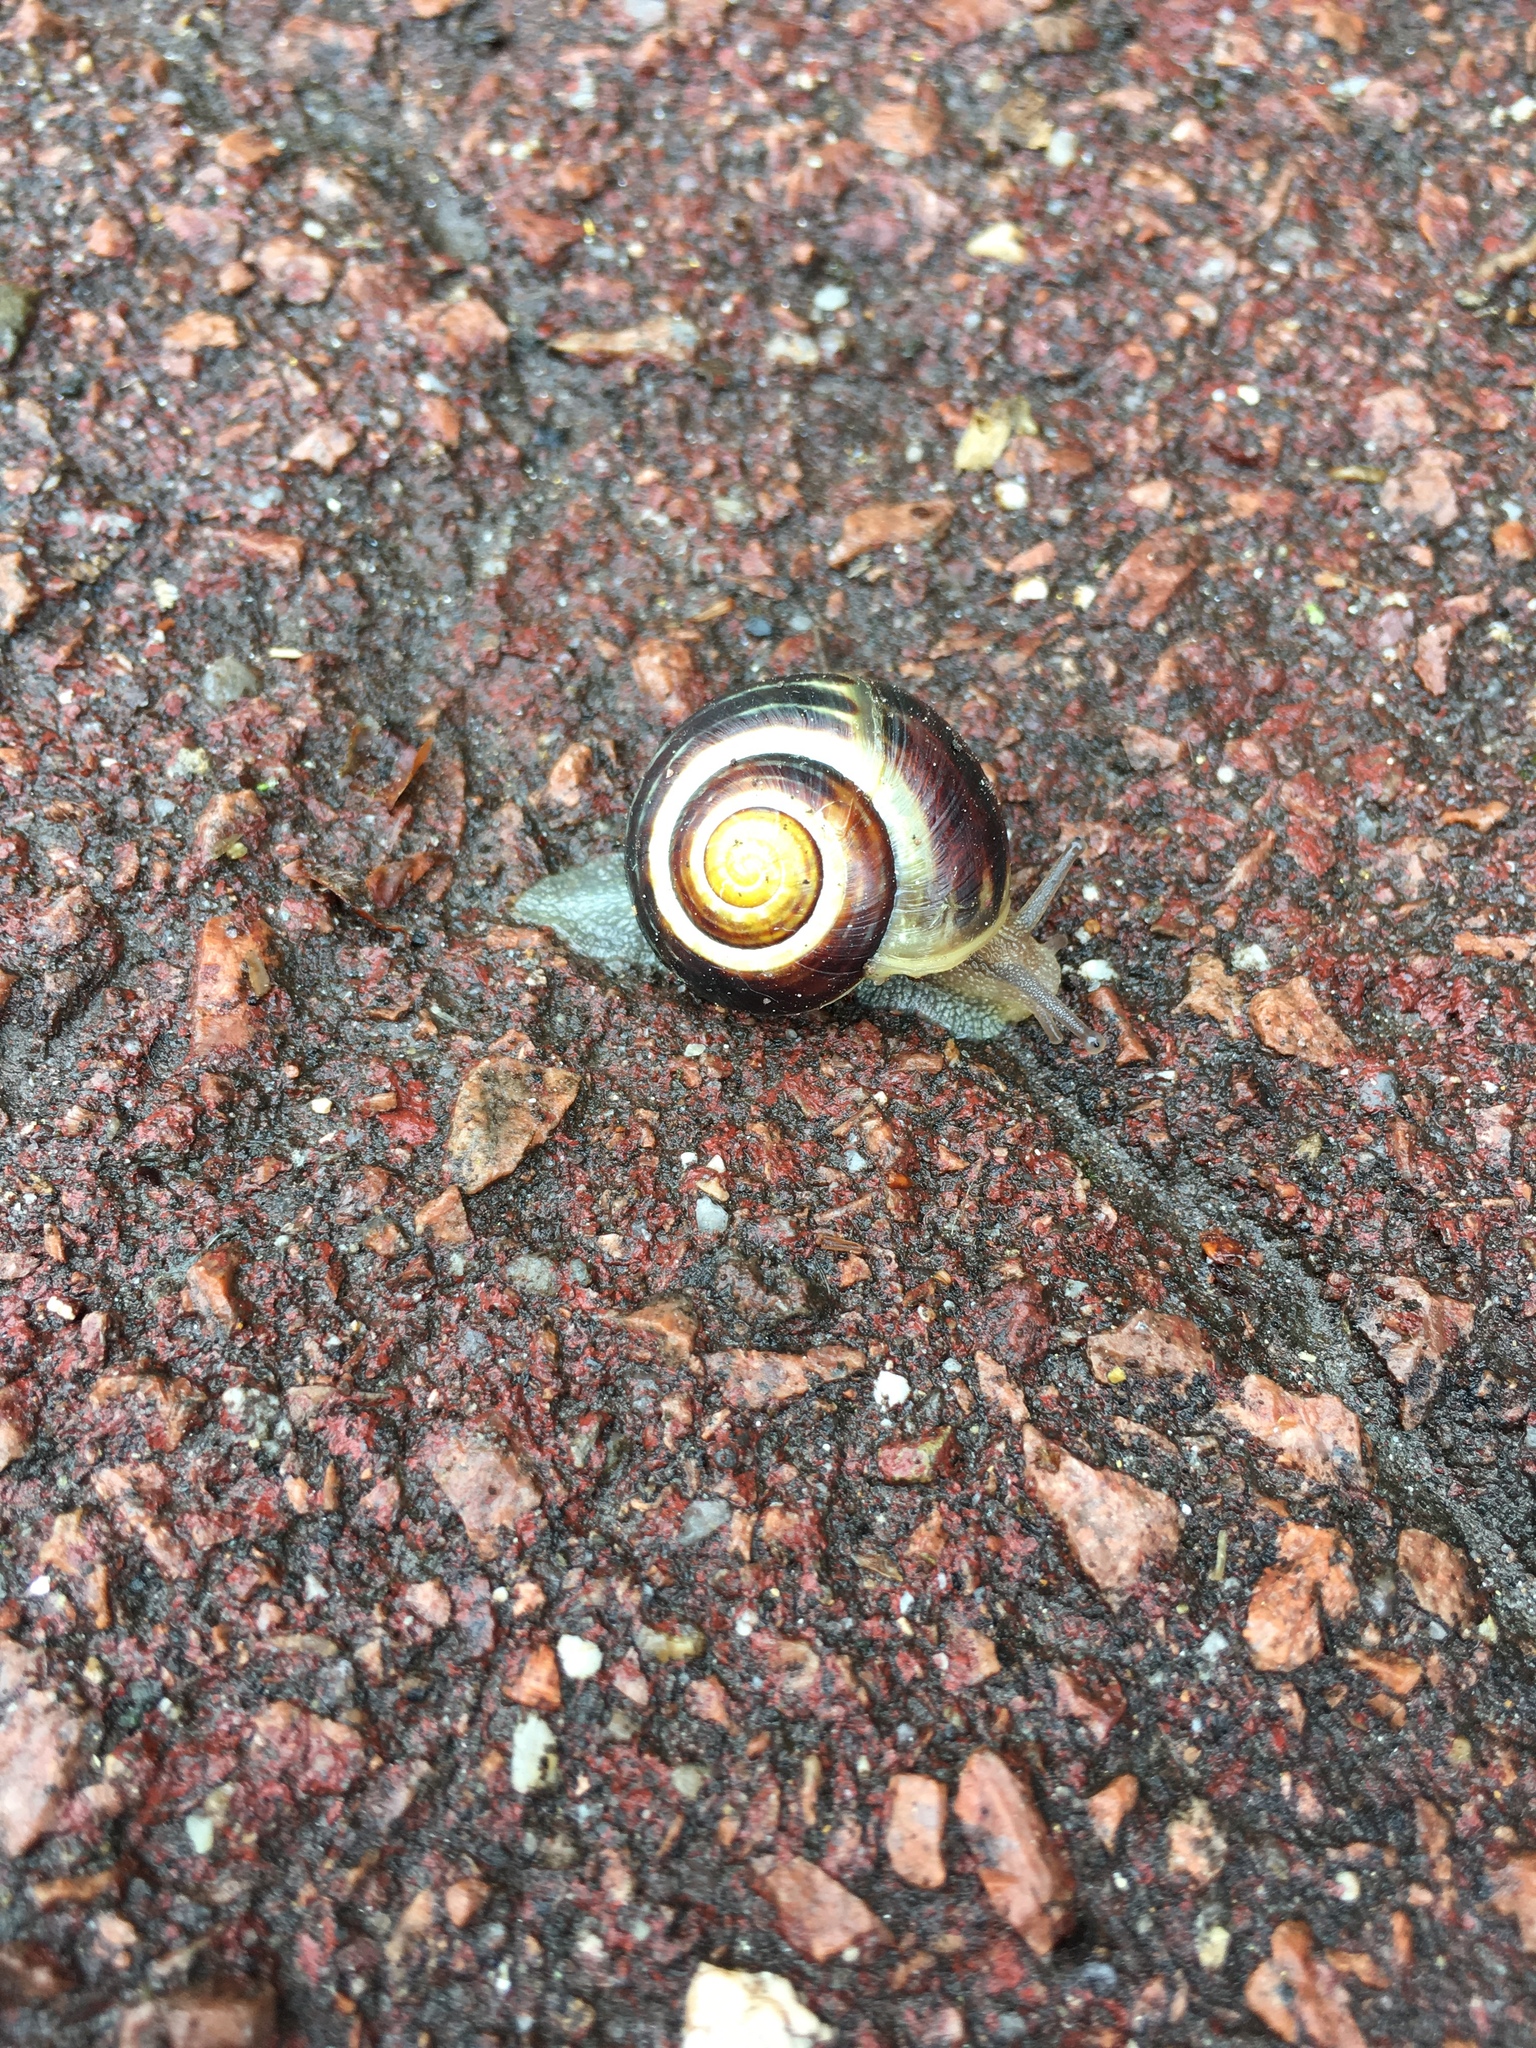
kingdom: Animalia
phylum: Mollusca
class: Gastropoda
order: Stylommatophora
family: Helicidae
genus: Cepaea
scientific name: Cepaea nemoralis
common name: Grovesnail
